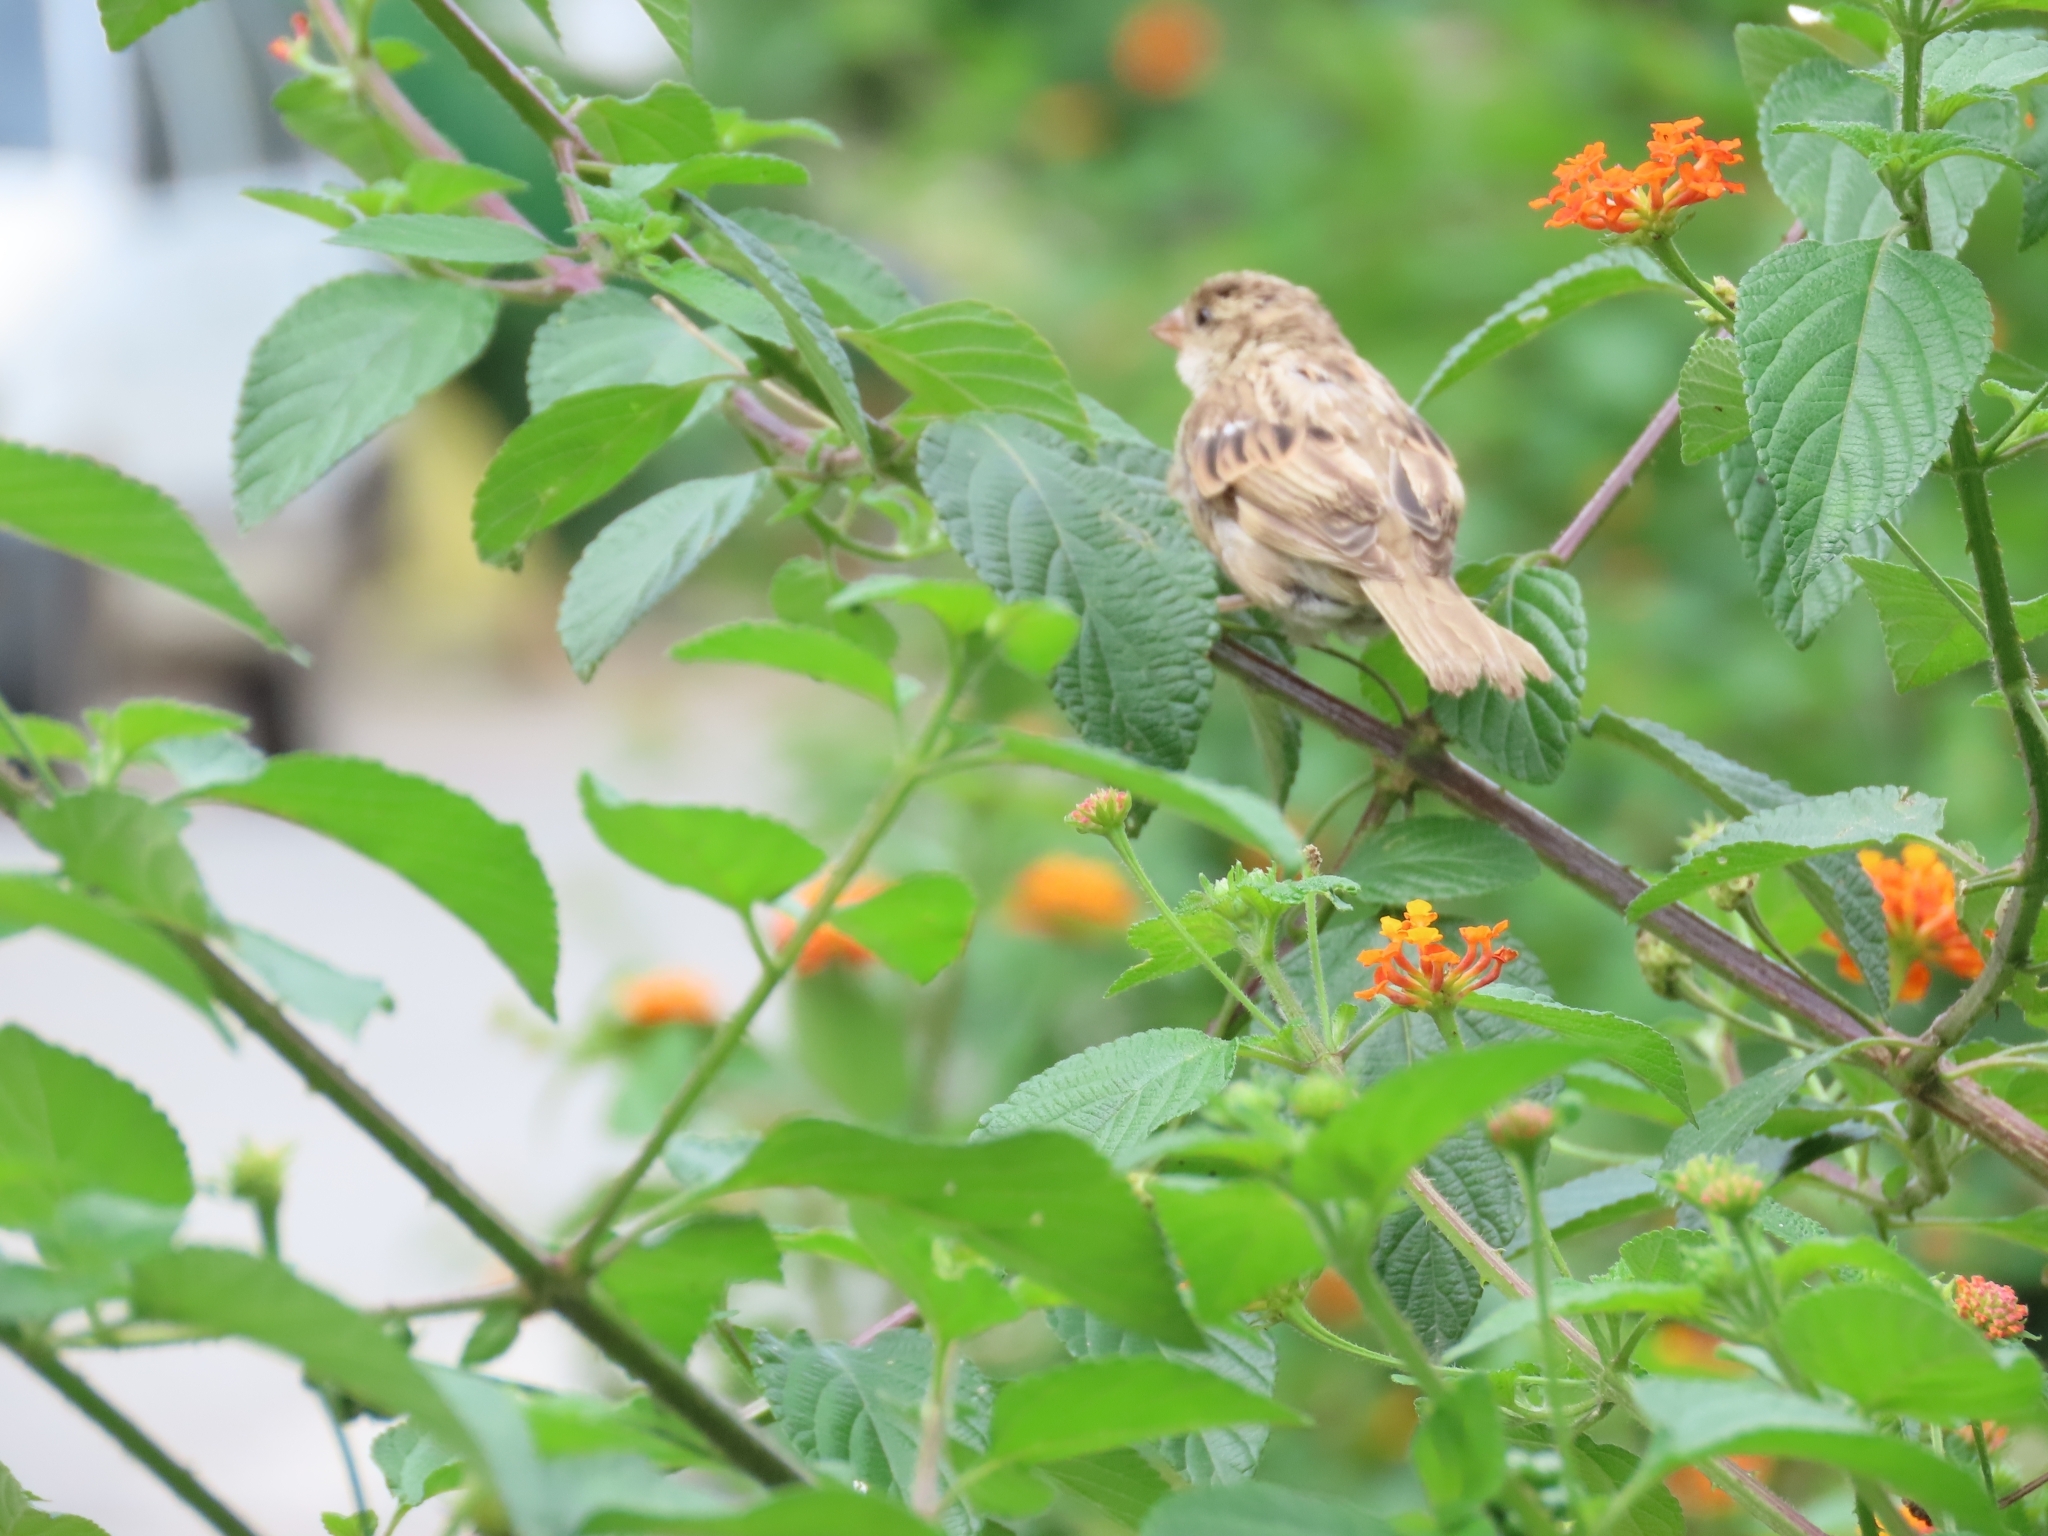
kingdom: Animalia
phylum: Chordata
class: Aves
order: Passeriformes
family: Passeridae
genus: Passer
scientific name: Passer domesticus
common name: House sparrow
